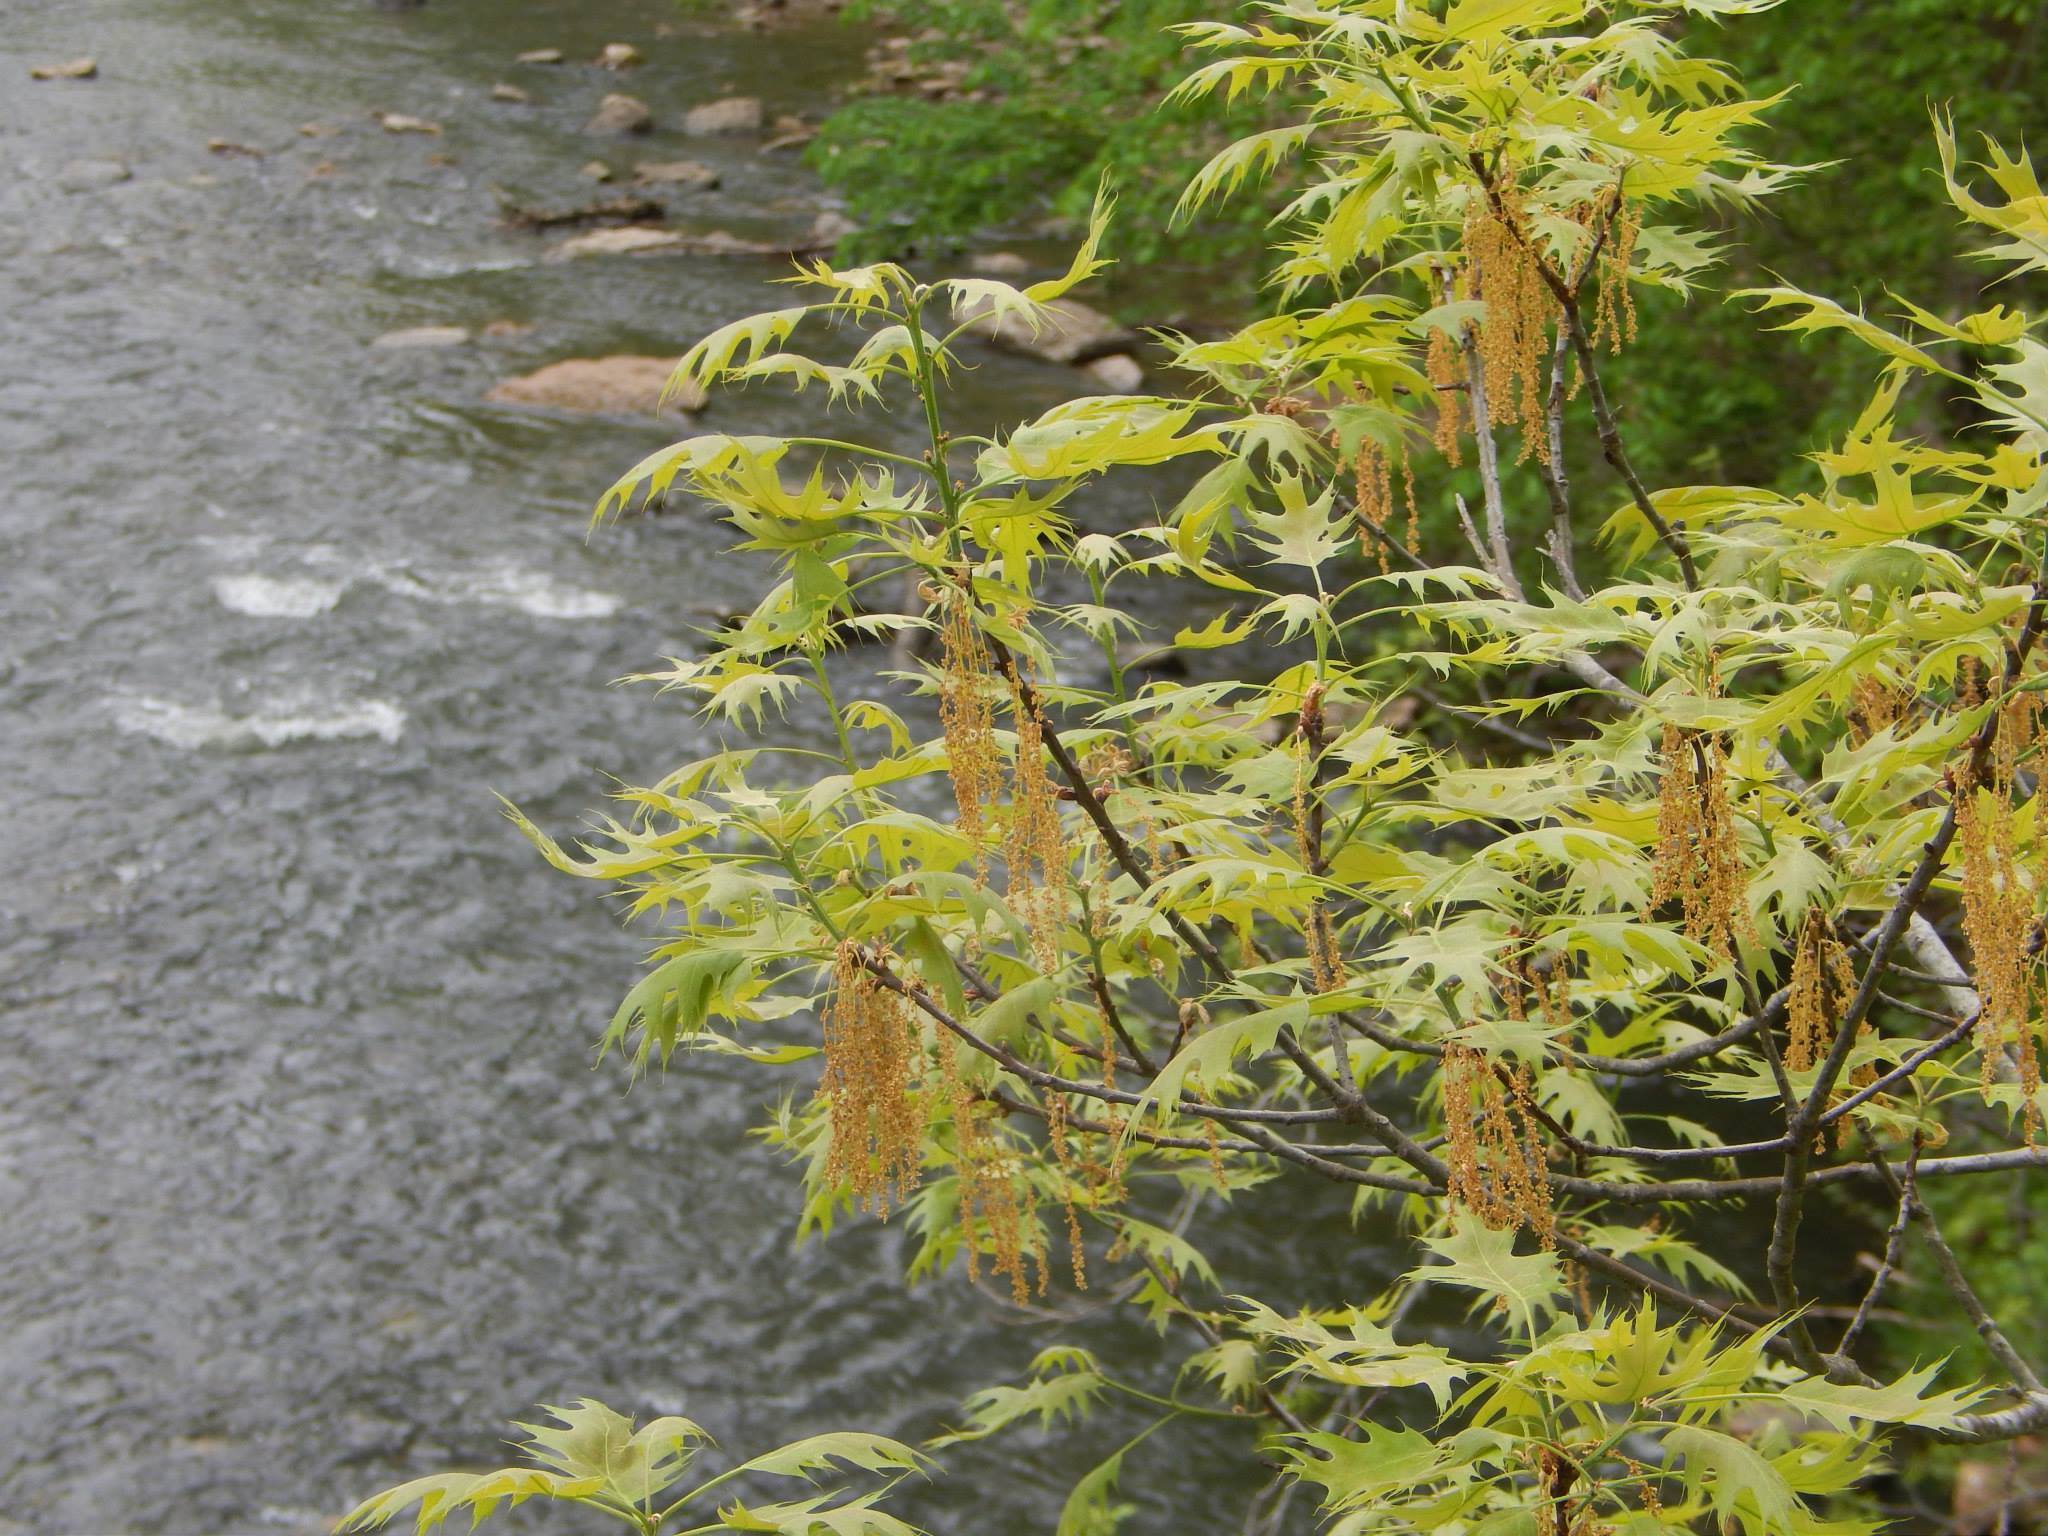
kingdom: Plantae
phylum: Tracheophyta
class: Magnoliopsida
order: Fagales
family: Fagaceae
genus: Quercus
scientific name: Quercus rubra
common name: Red oak
